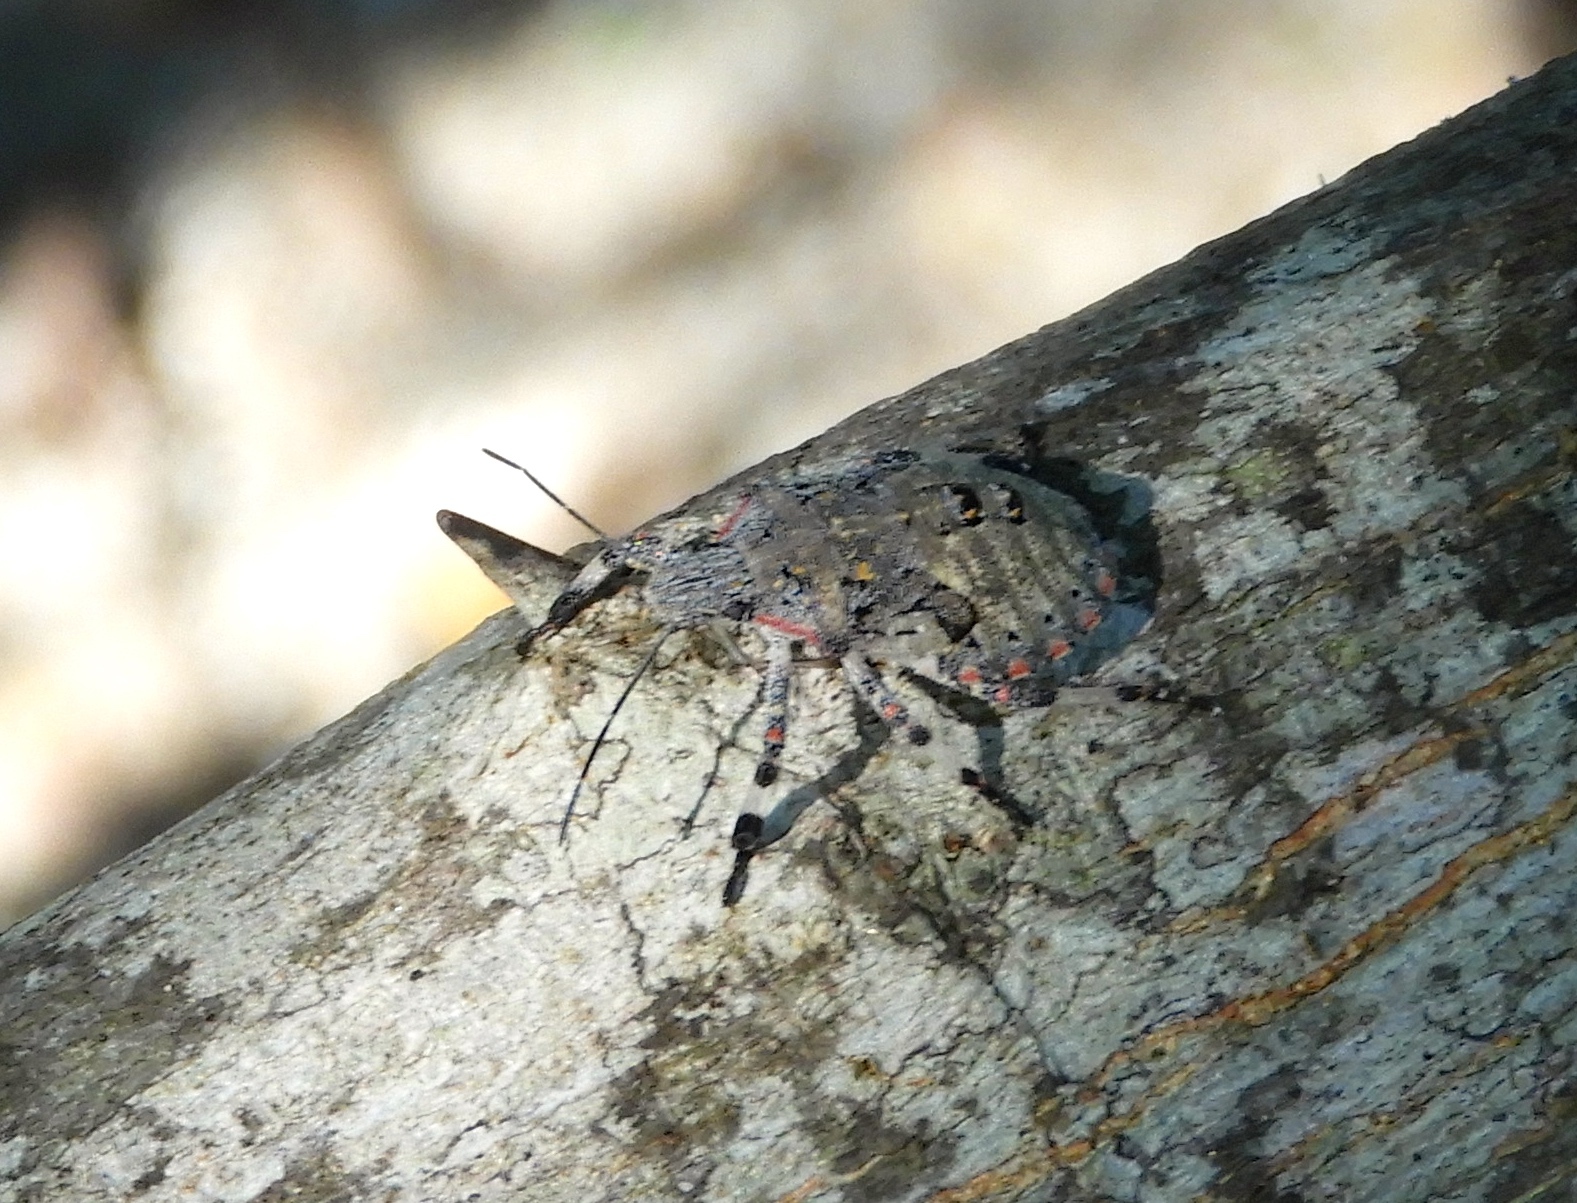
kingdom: Animalia
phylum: Arthropoda
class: Insecta
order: Hemiptera
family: Pentatomidae
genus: Brochymena
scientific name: Brochymena
